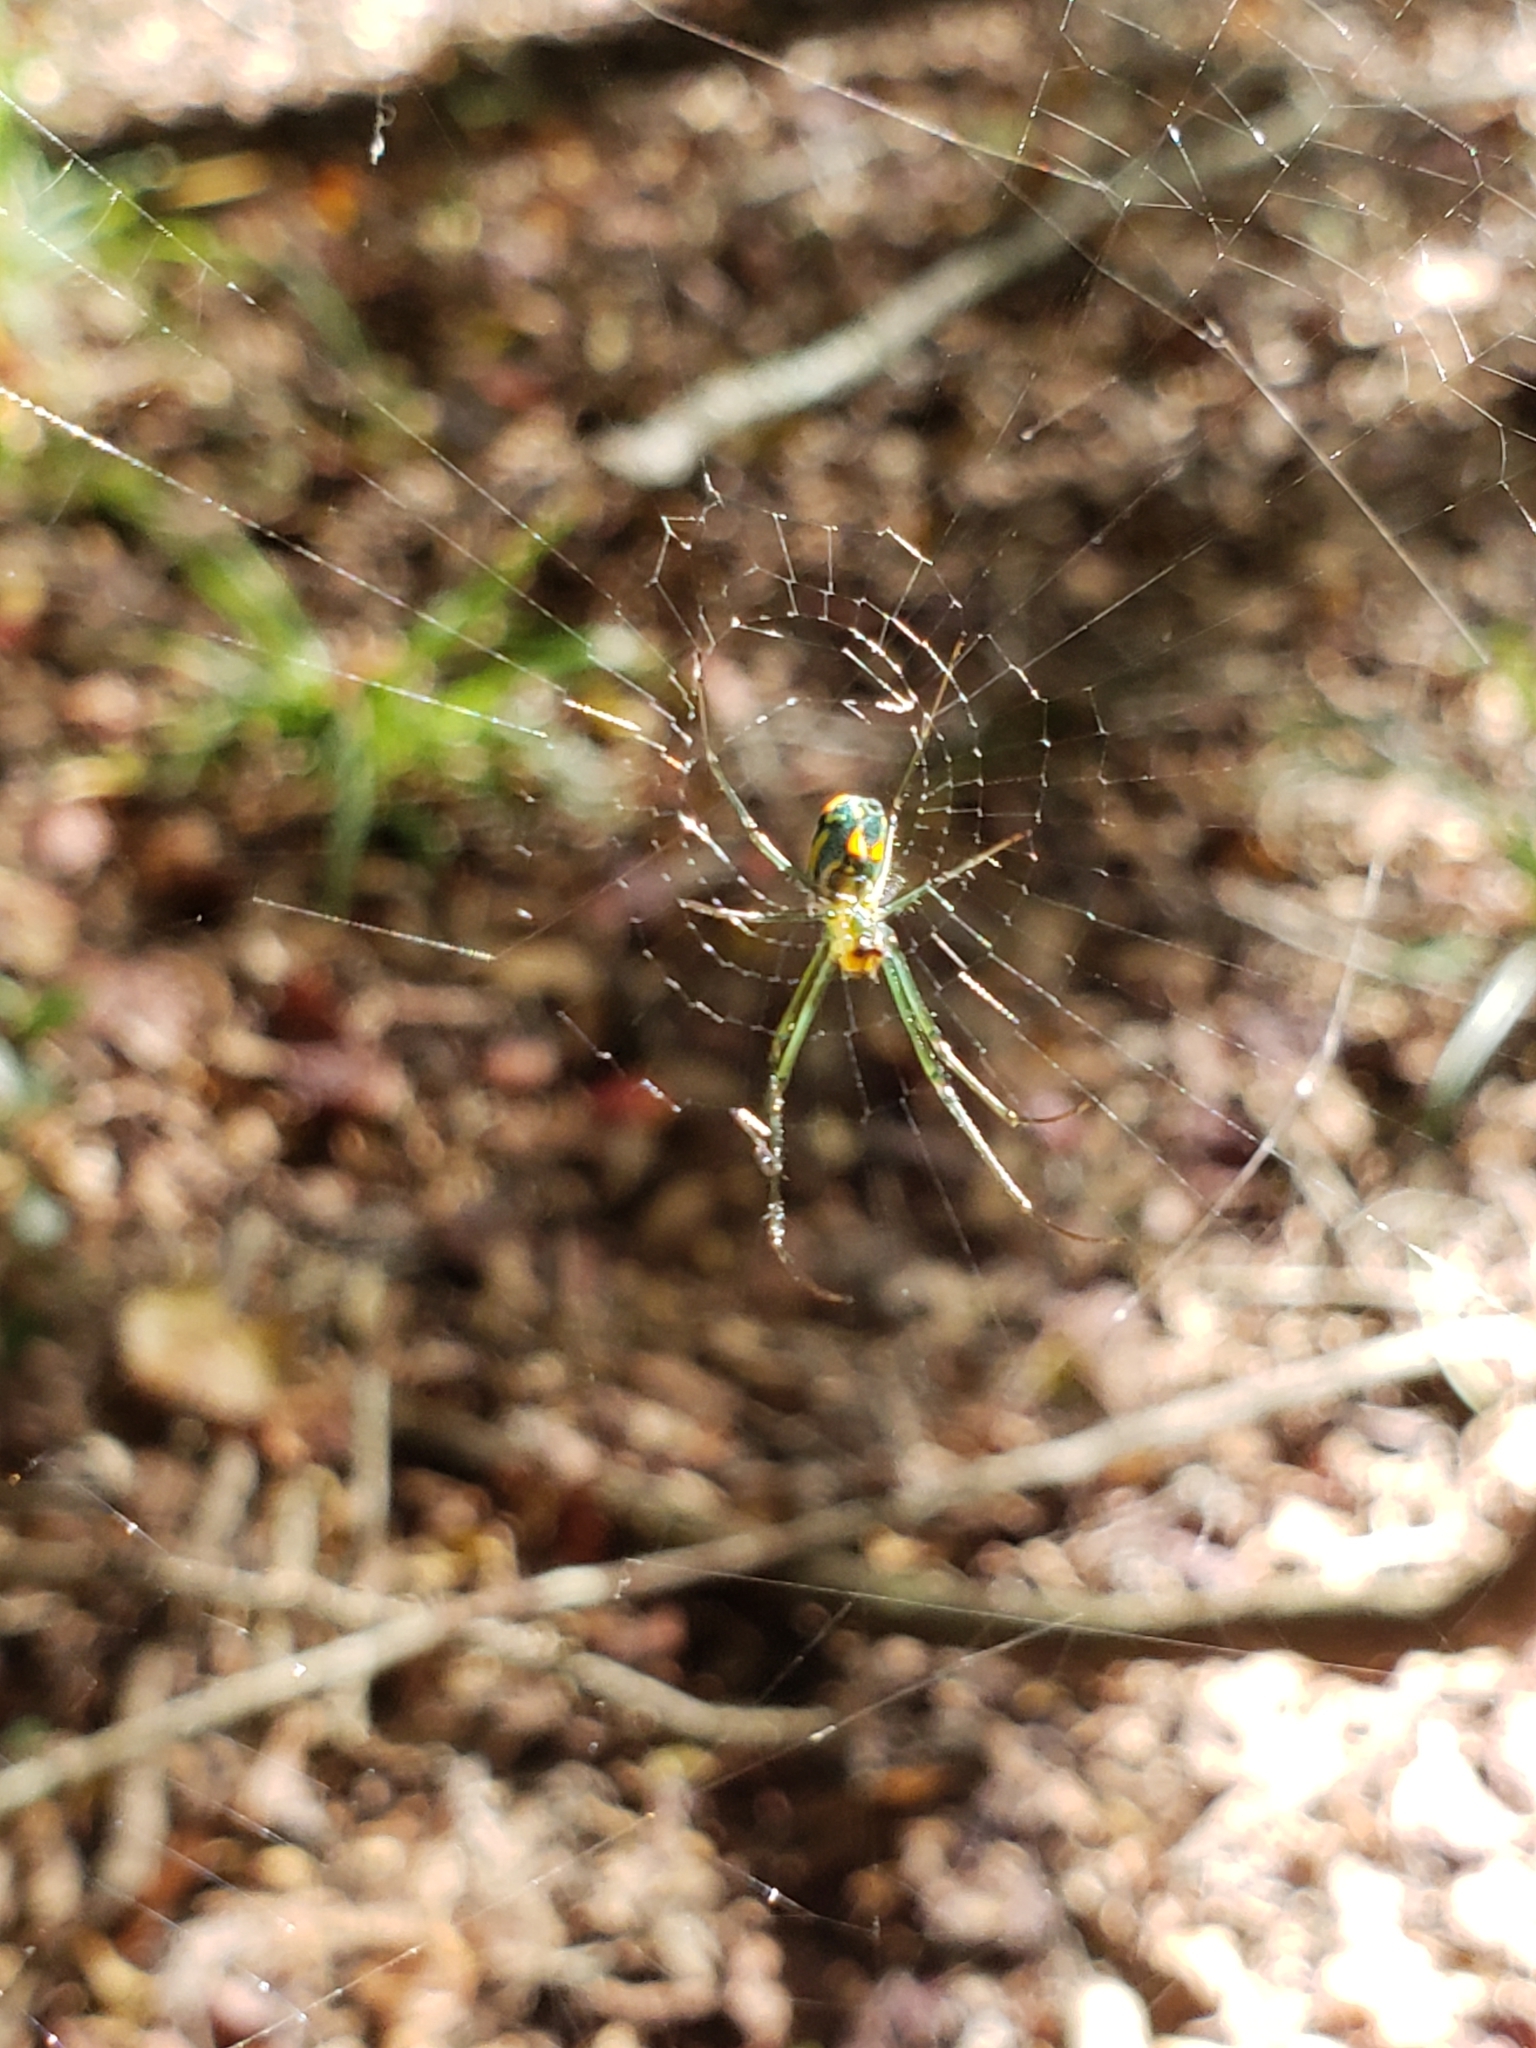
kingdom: Animalia
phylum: Arthropoda
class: Arachnida
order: Araneae
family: Tetragnathidae
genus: Leucauge
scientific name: Leucauge argyrobapta
